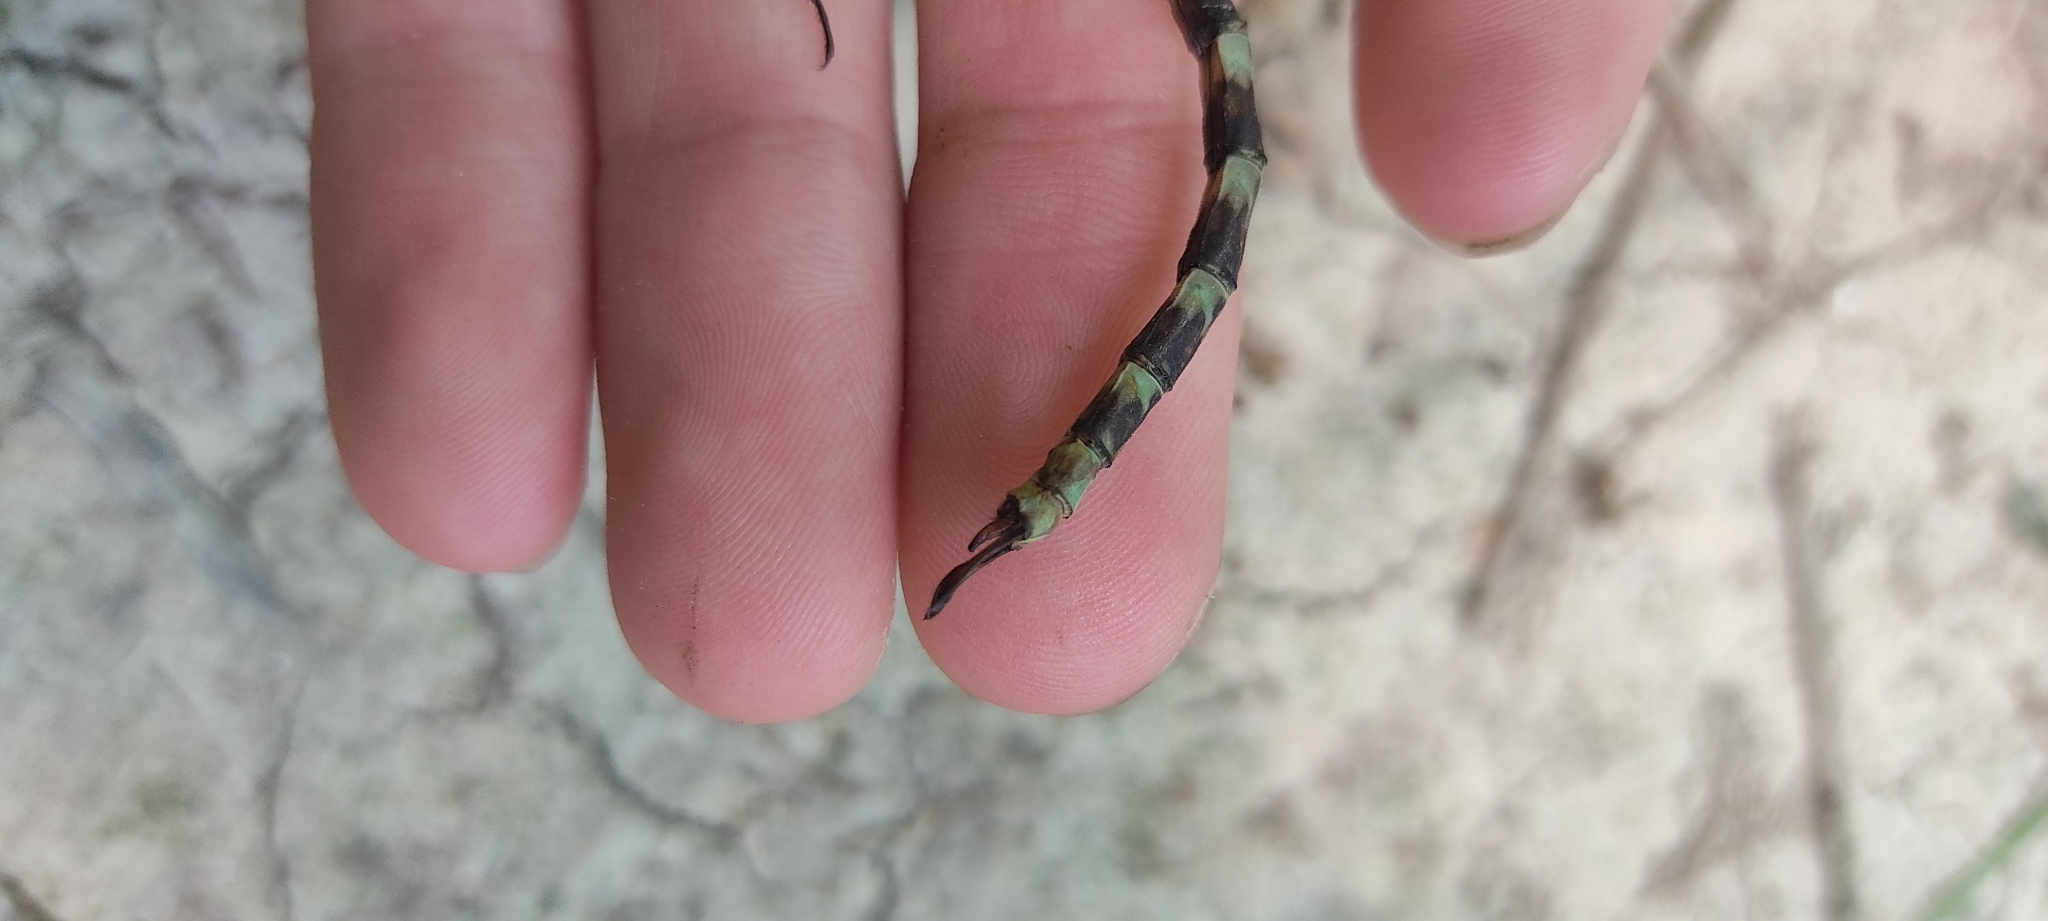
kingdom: Animalia
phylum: Arthropoda
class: Insecta
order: Odonata
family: Aeshnidae
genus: Boyeria
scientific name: Boyeria irene
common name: Western spectre
